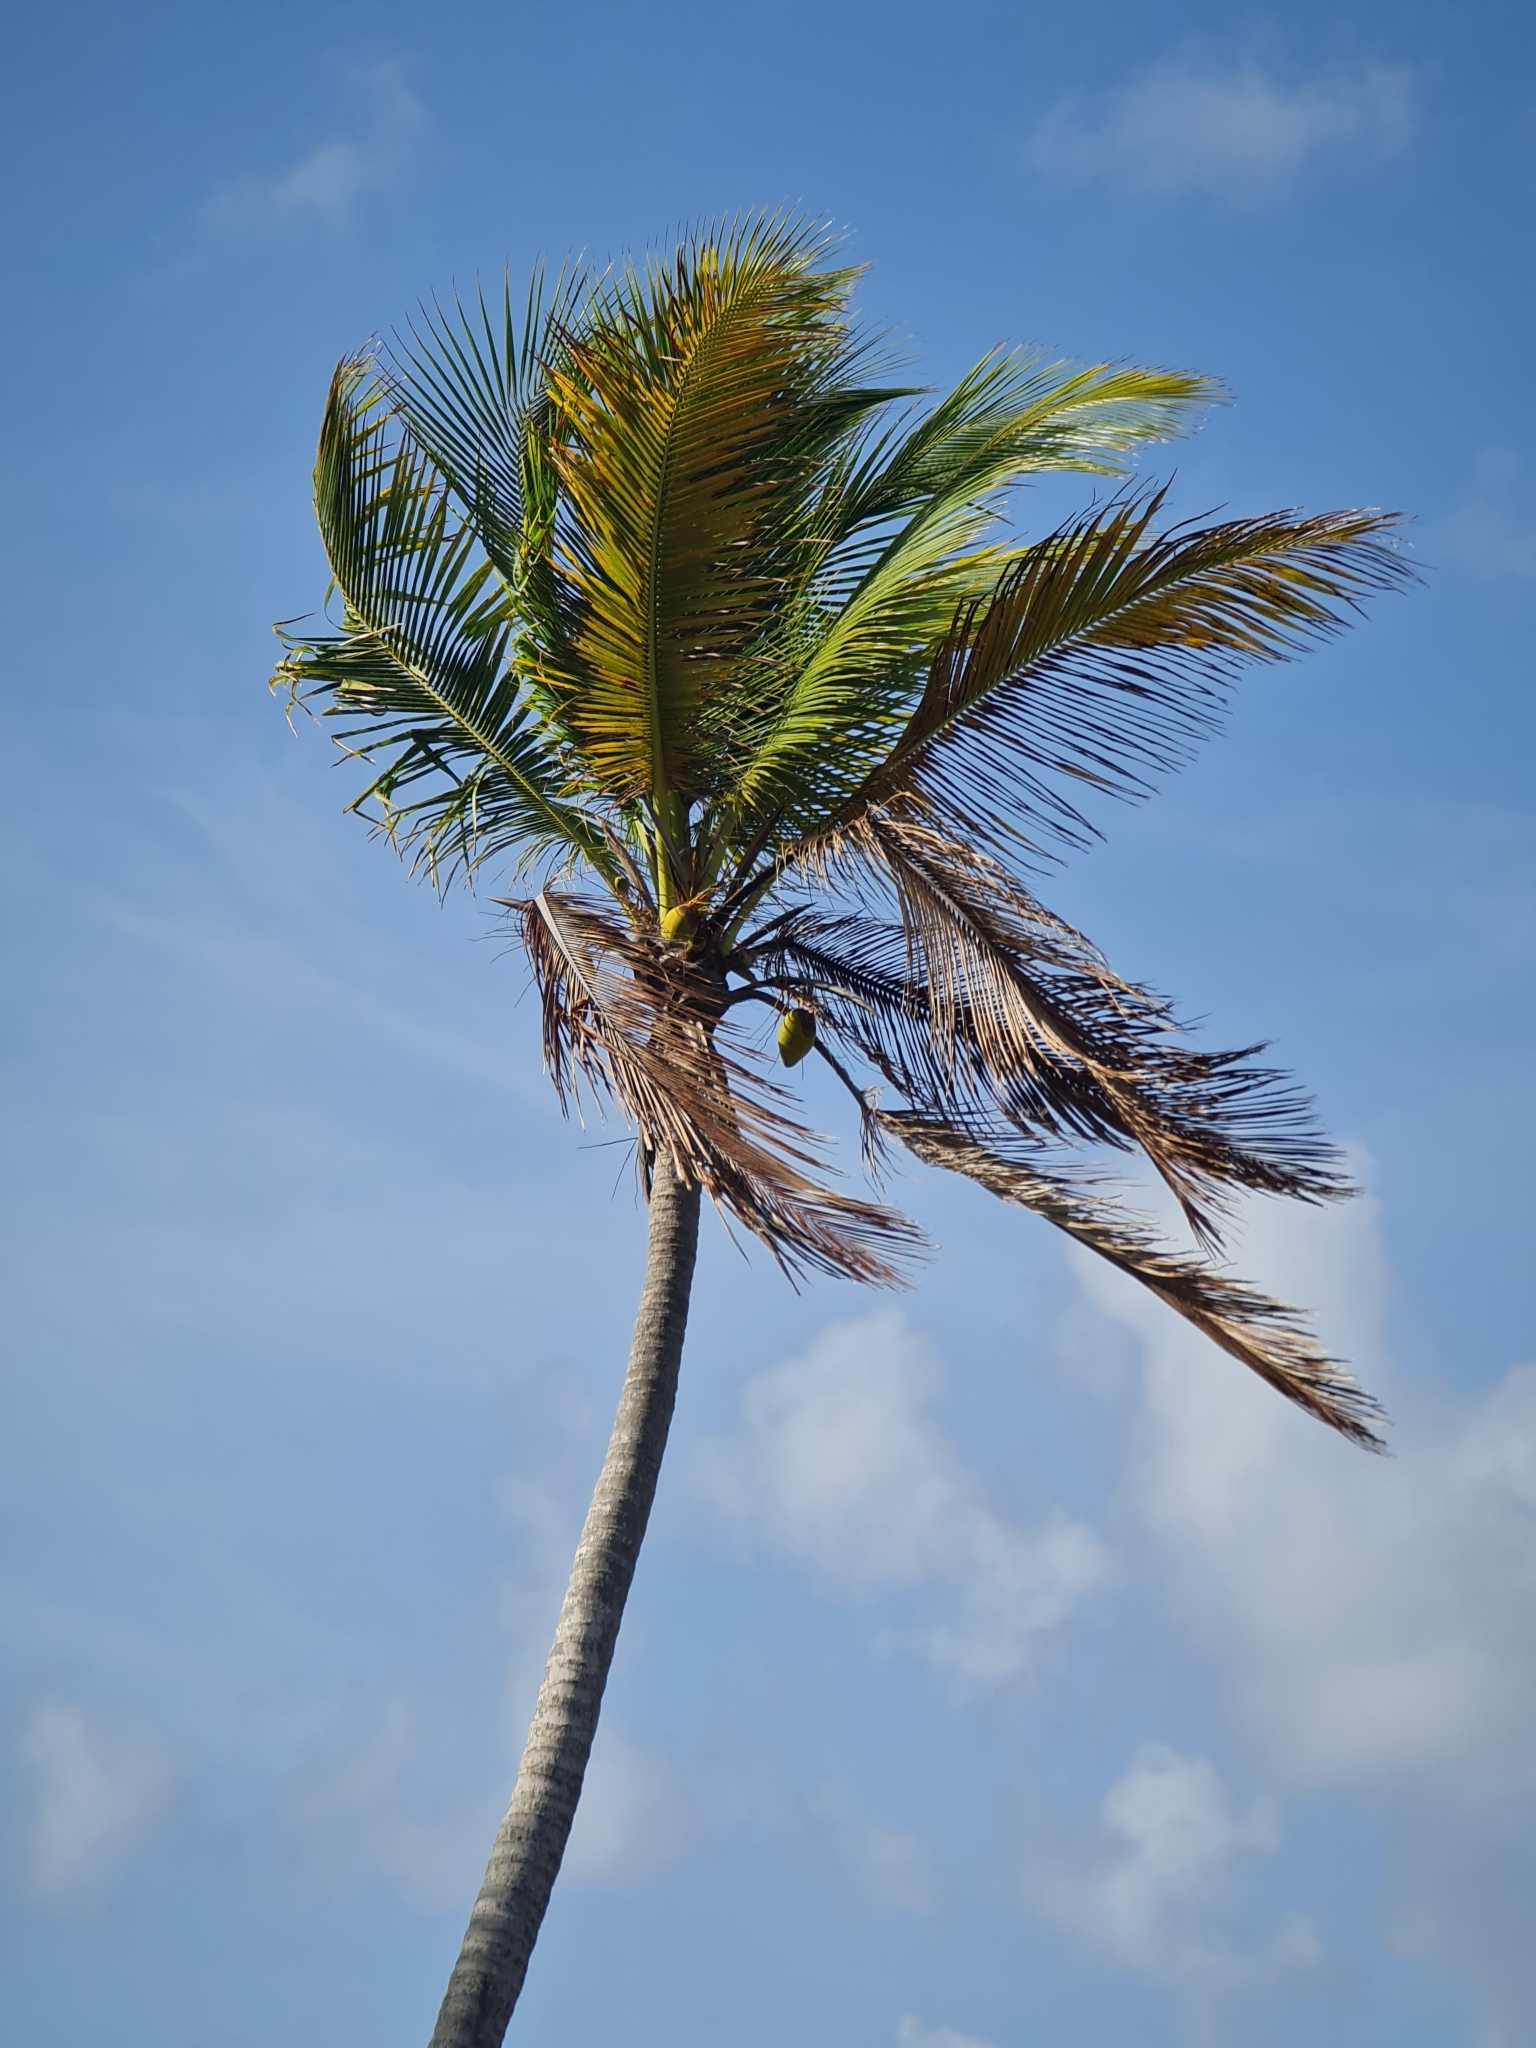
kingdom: Plantae
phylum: Tracheophyta
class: Liliopsida
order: Arecales
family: Arecaceae
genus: Cocos
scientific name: Cocos nucifera
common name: Coconut palm
